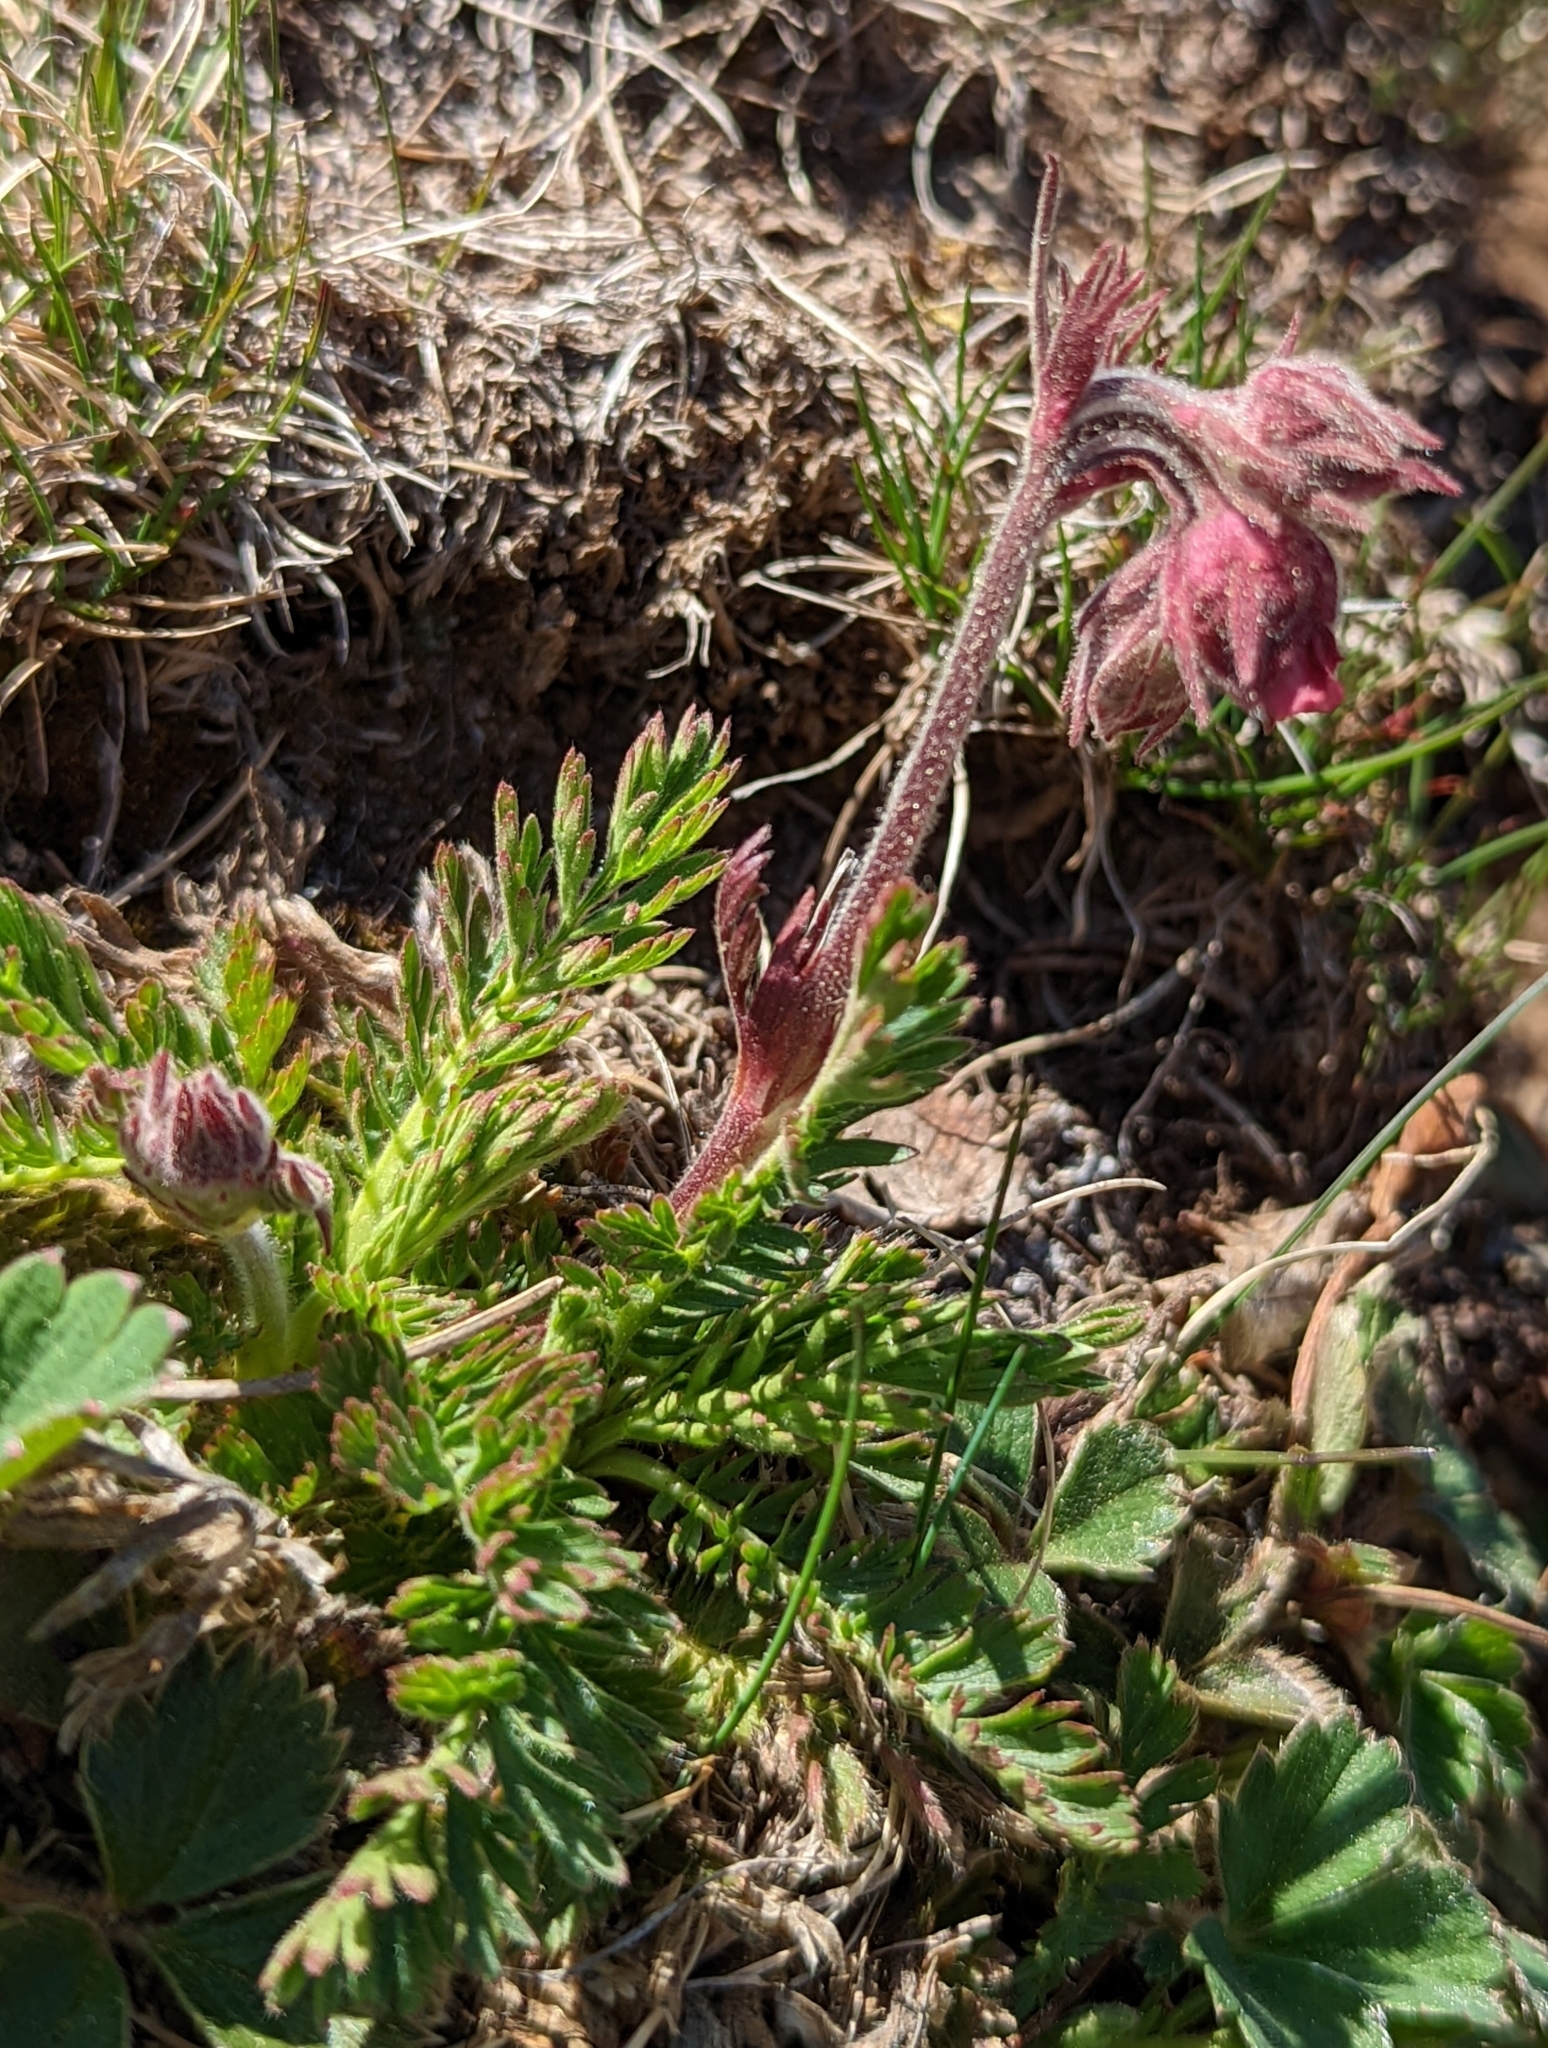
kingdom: Plantae
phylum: Tracheophyta
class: Magnoliopsida
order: Rosales
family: Rosaceae
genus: Geum
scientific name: Geum triflorum
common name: Old man's whiskers
